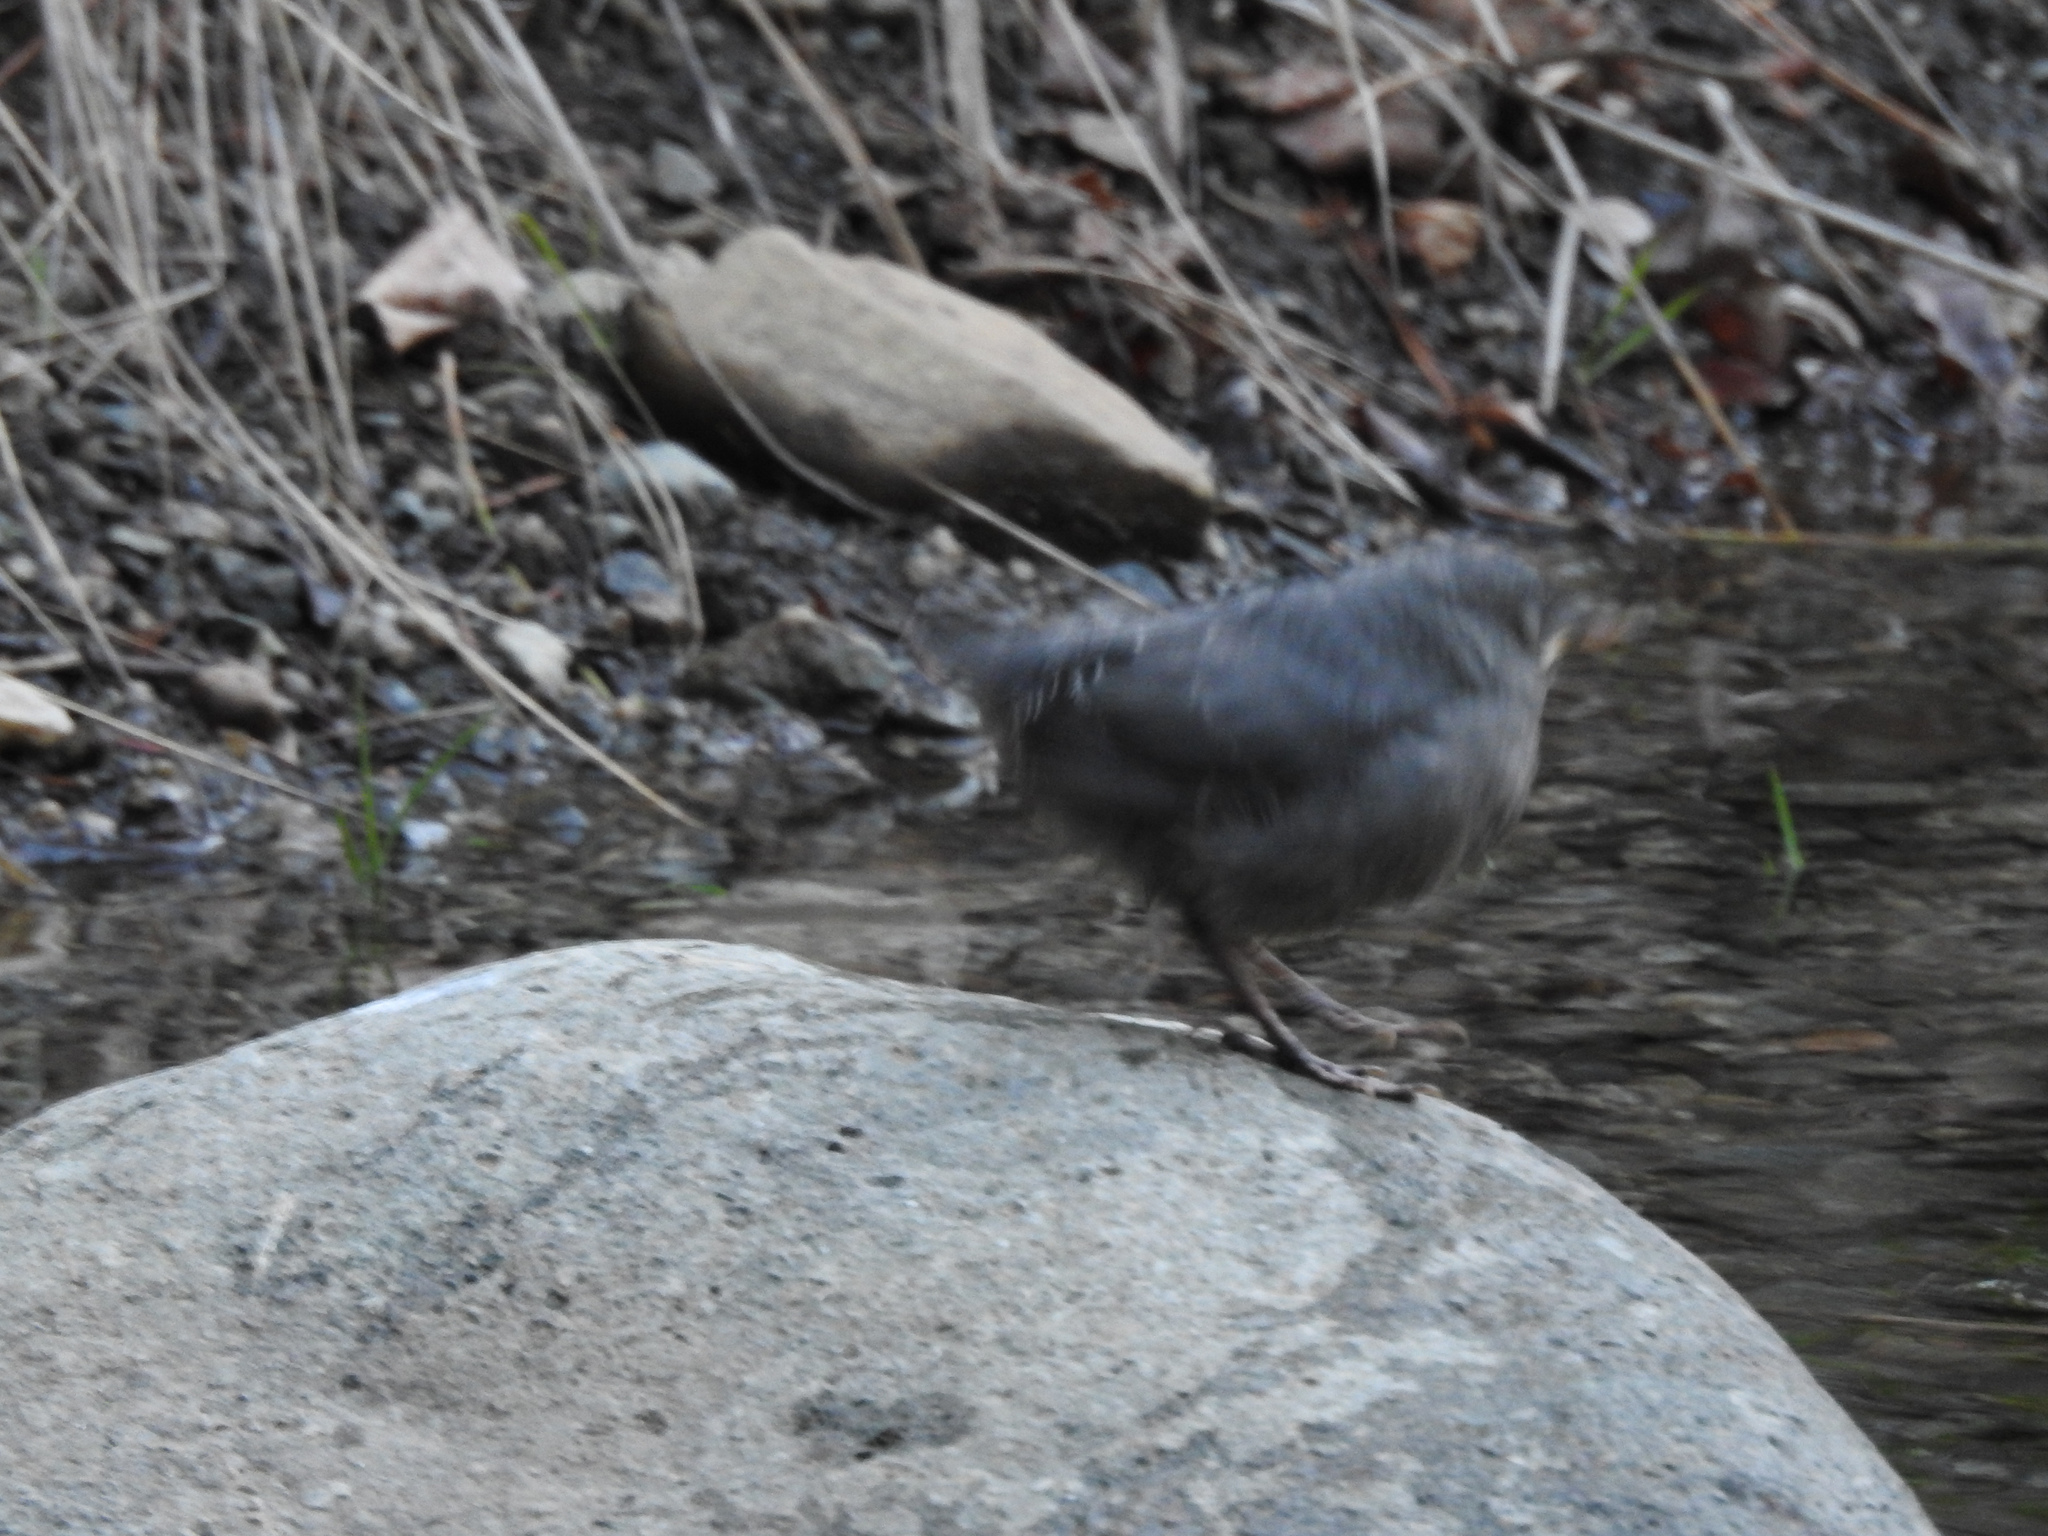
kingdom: Animalia
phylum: Chordata
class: Aves
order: Passeriformes
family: Cinclidae
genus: Cinclus
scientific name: Cinclus mexicanus
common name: American dipper
